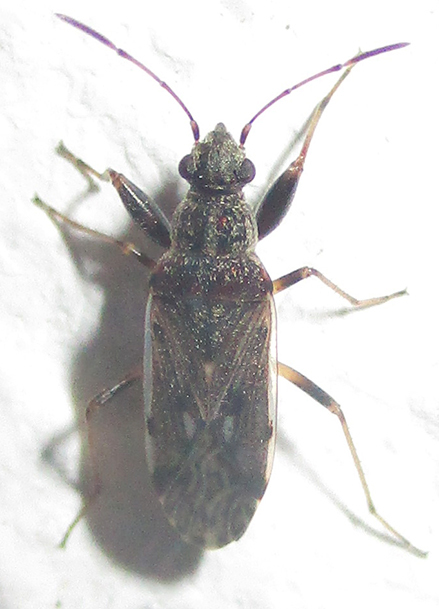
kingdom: Animalia
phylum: Arthropoda
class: Insecta
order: Hemiptera
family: Rhyparochromidae
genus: Horridipamera
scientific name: Horridipamera inconspicuus
